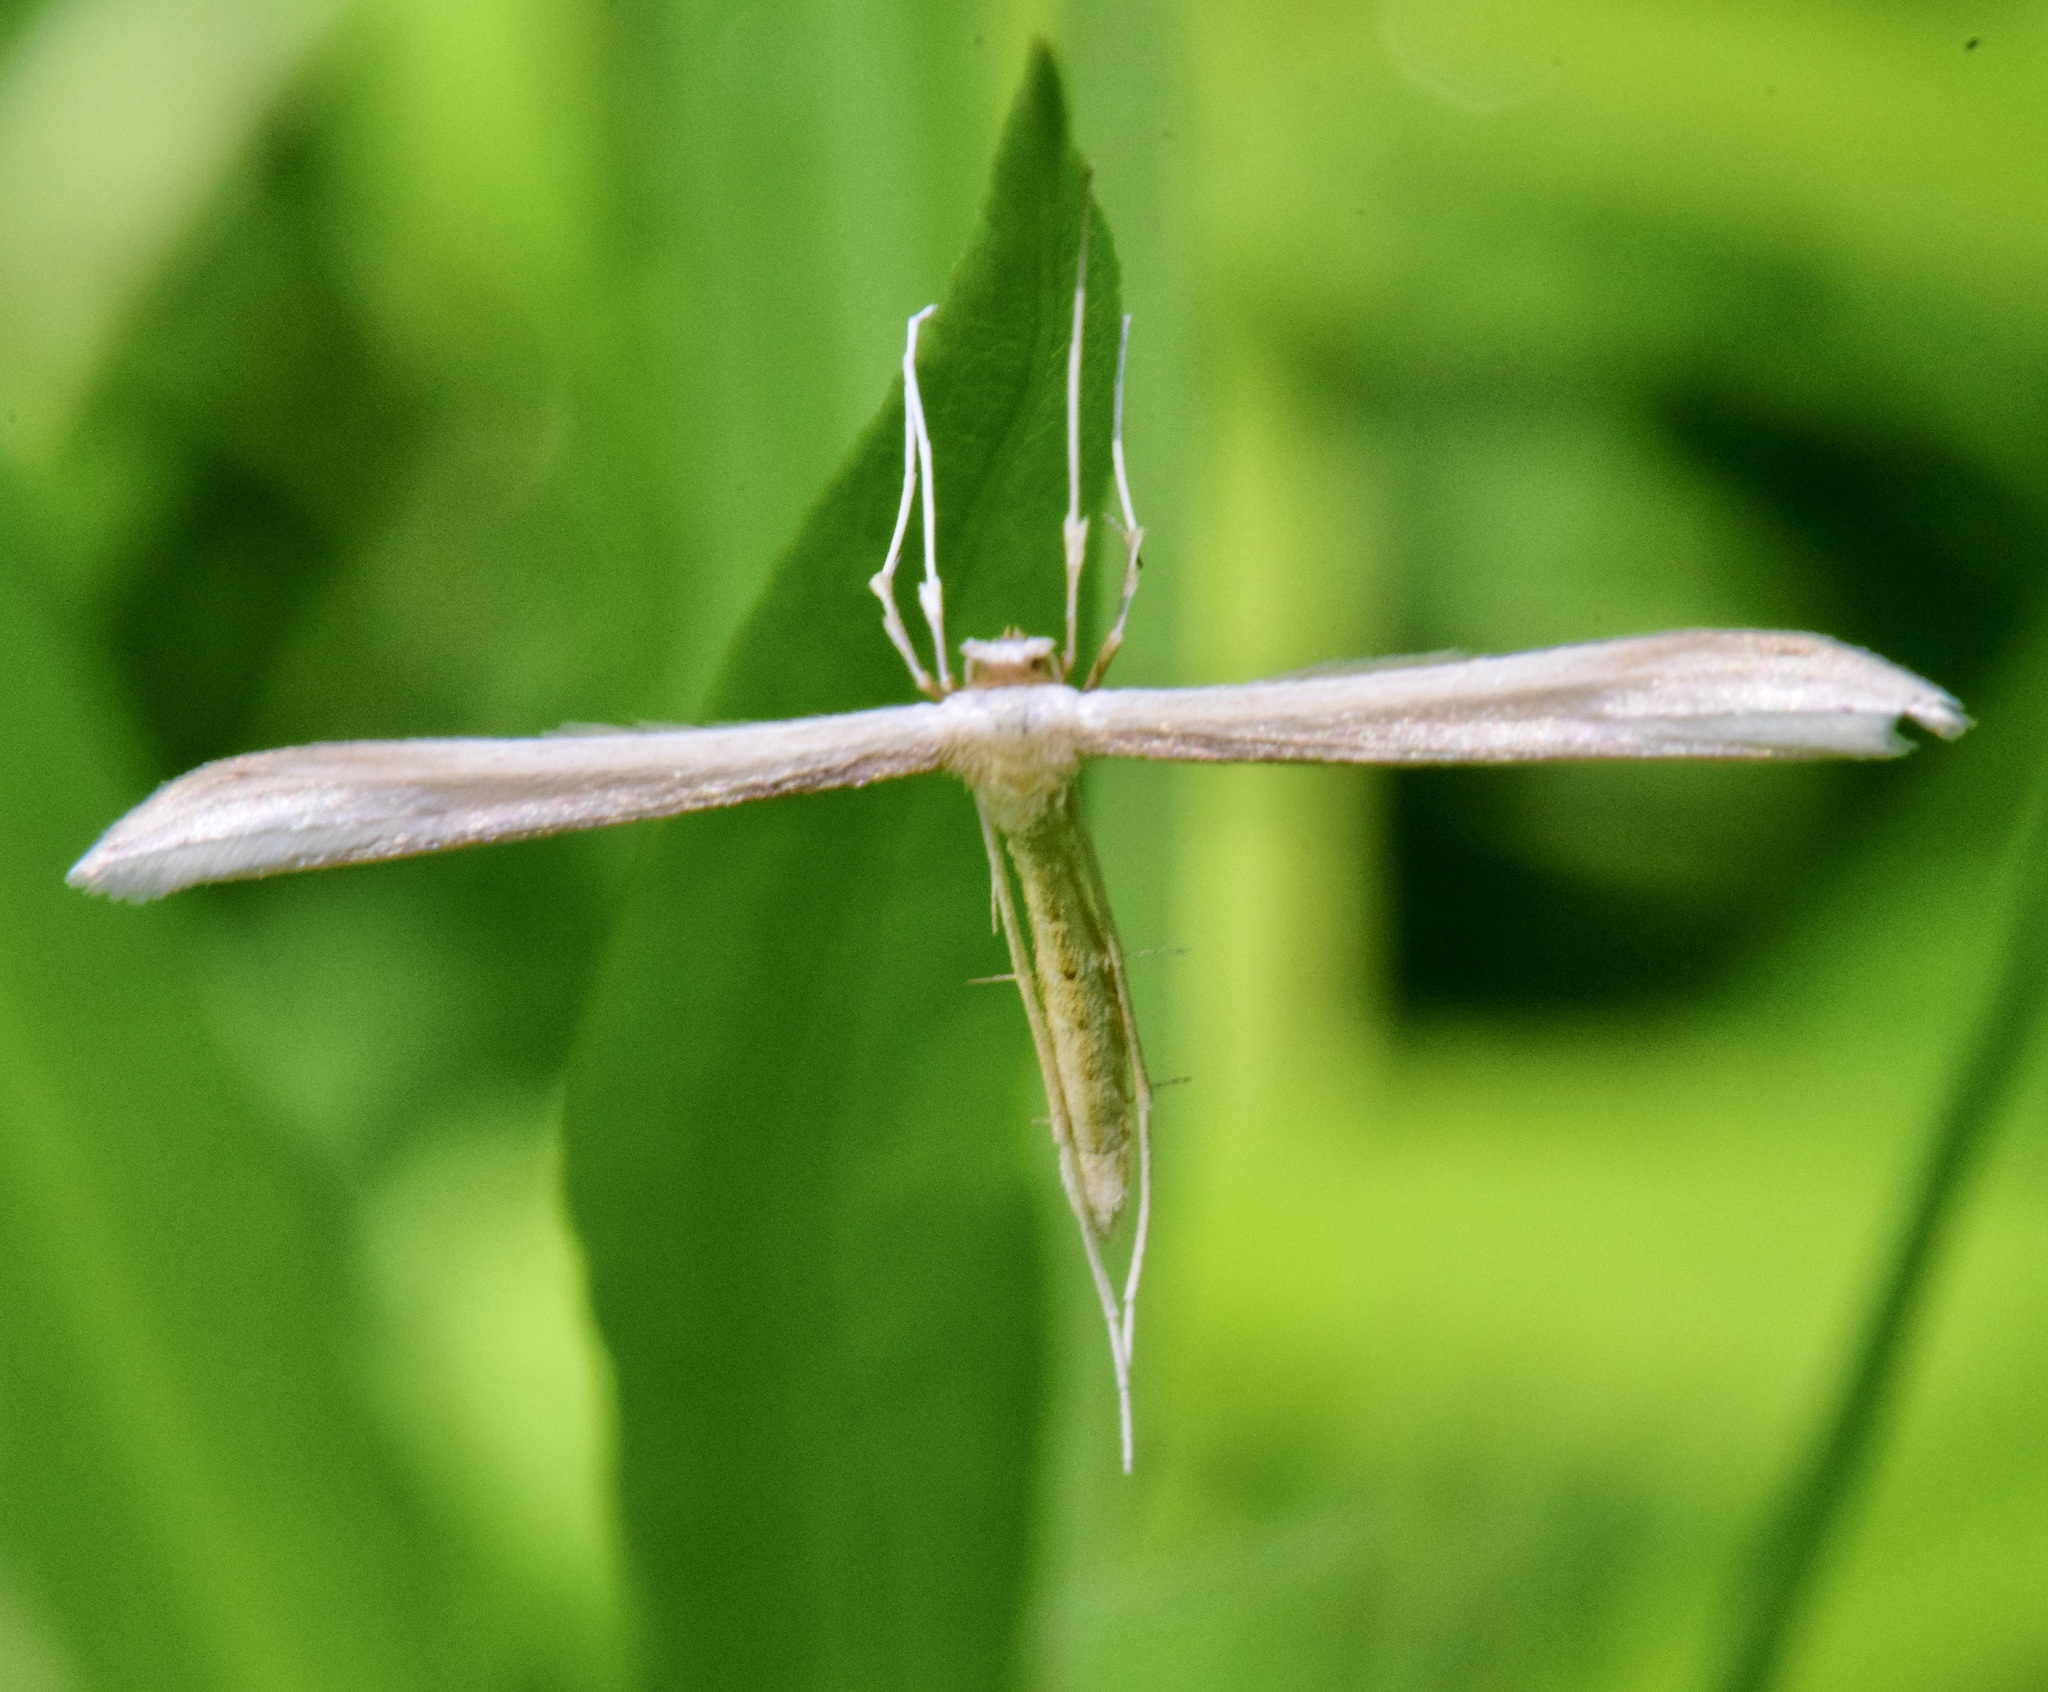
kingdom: Animalia
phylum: Arthropoda
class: Insecta
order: Lepidoptera
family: Pterophoridae
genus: Hellinsia
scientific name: Hellinsia
